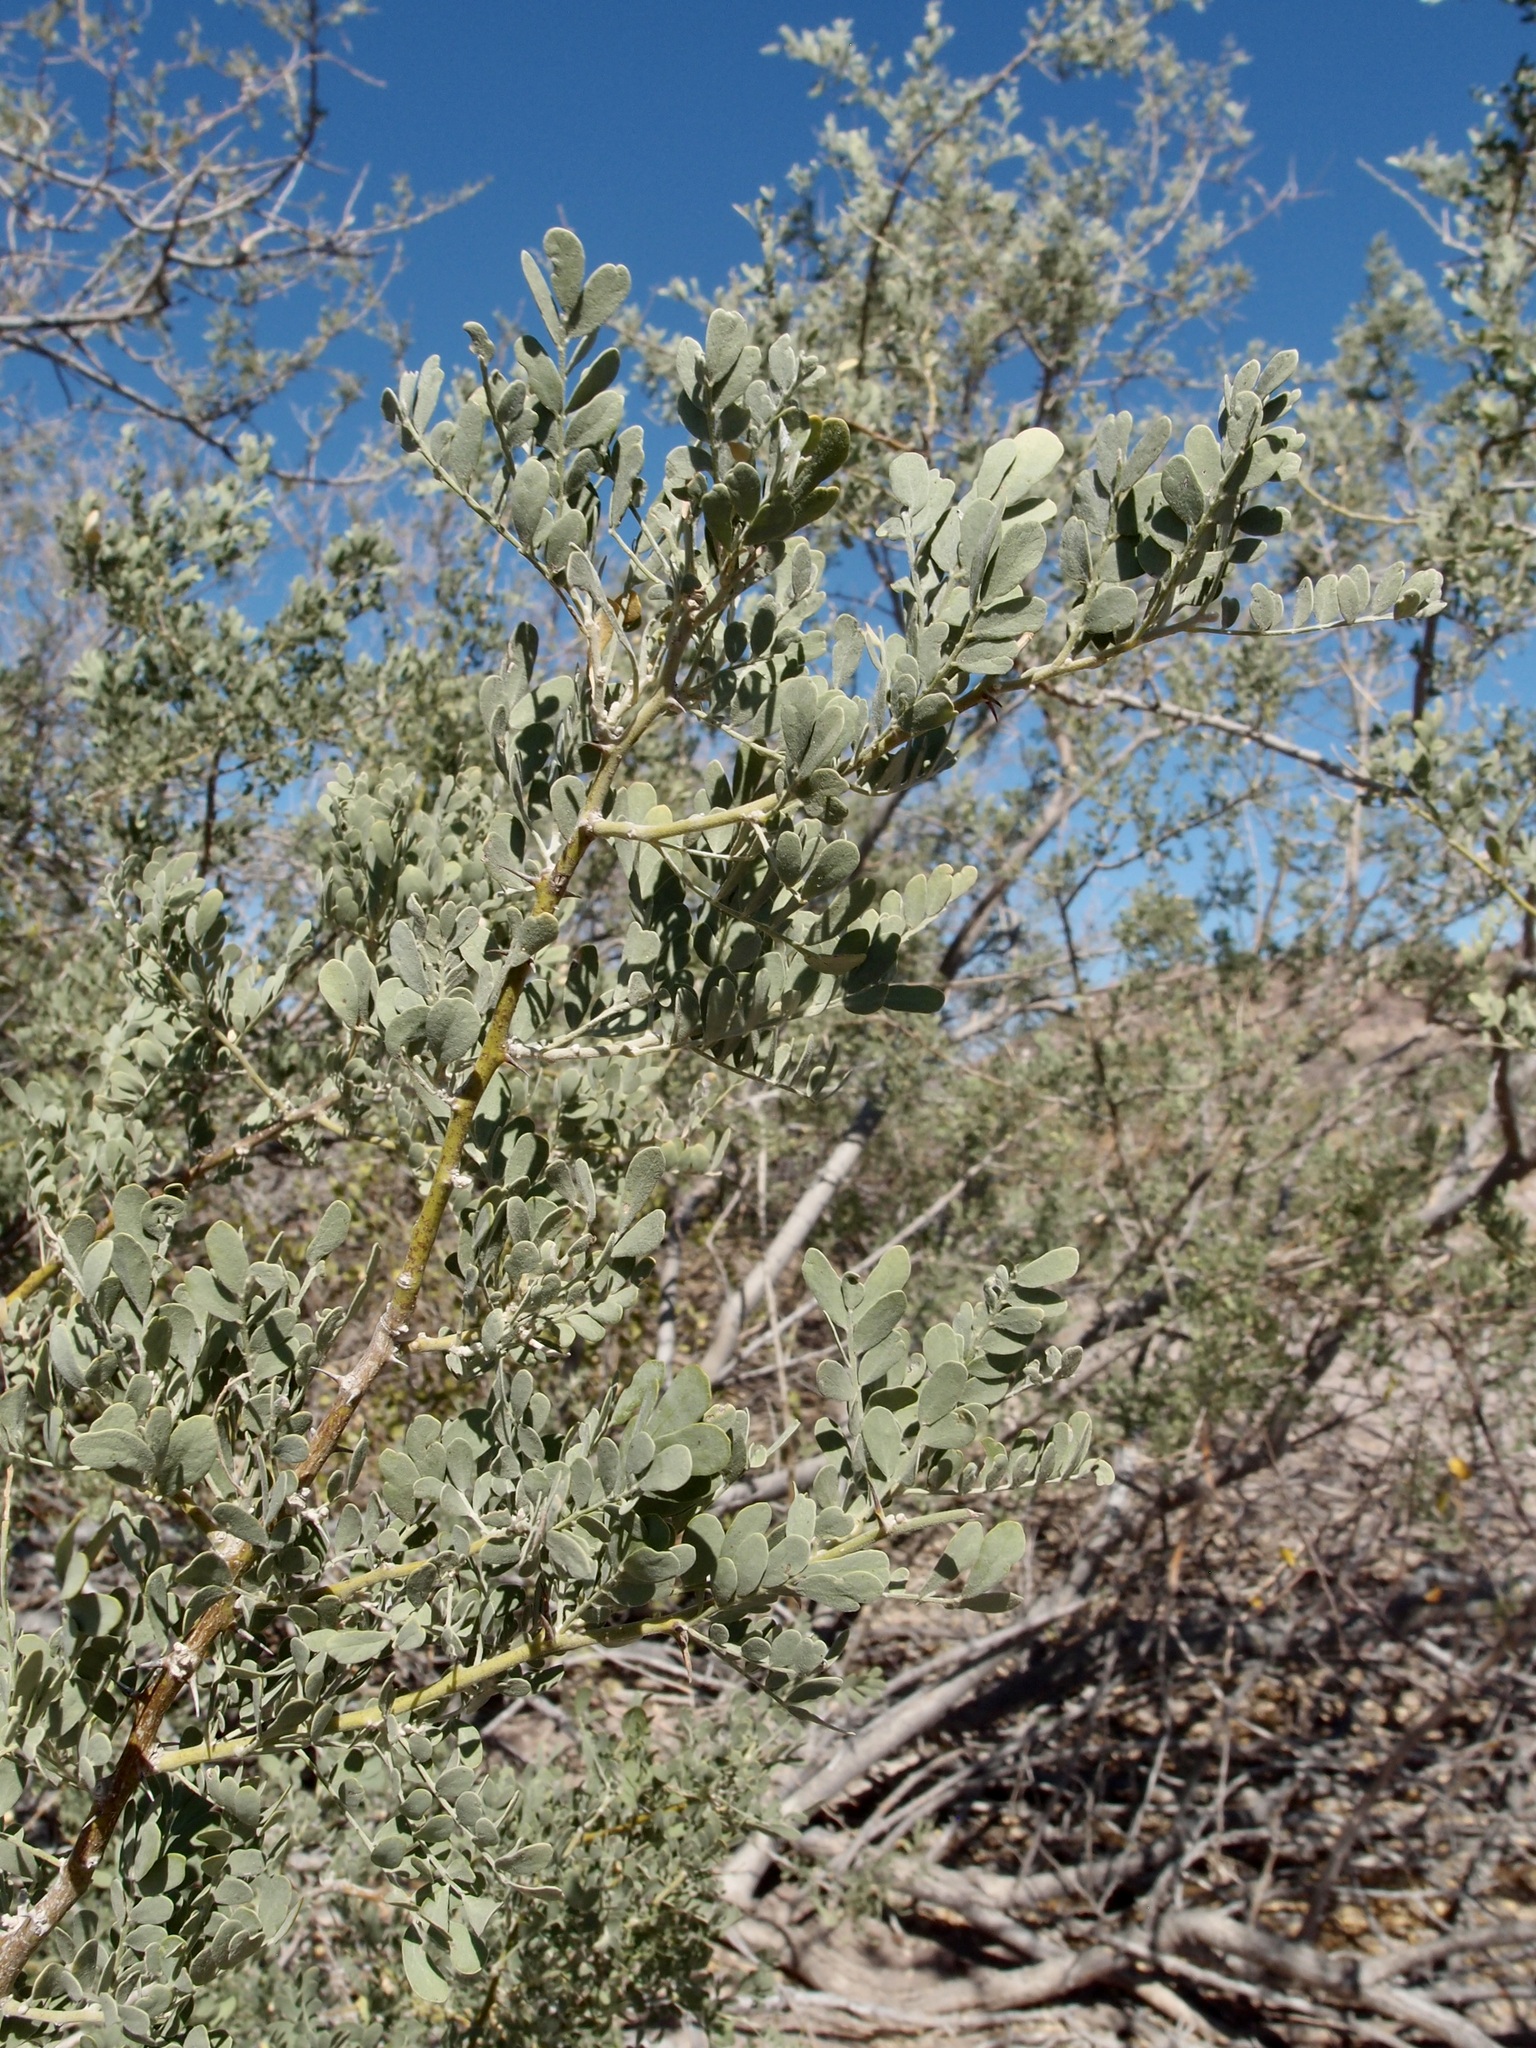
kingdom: Plantae
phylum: Tracheophyta
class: Magnoliopsida
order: Fabales
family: Fabaceae
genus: Olneya
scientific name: Olneya tesota
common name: Desert ironwood
